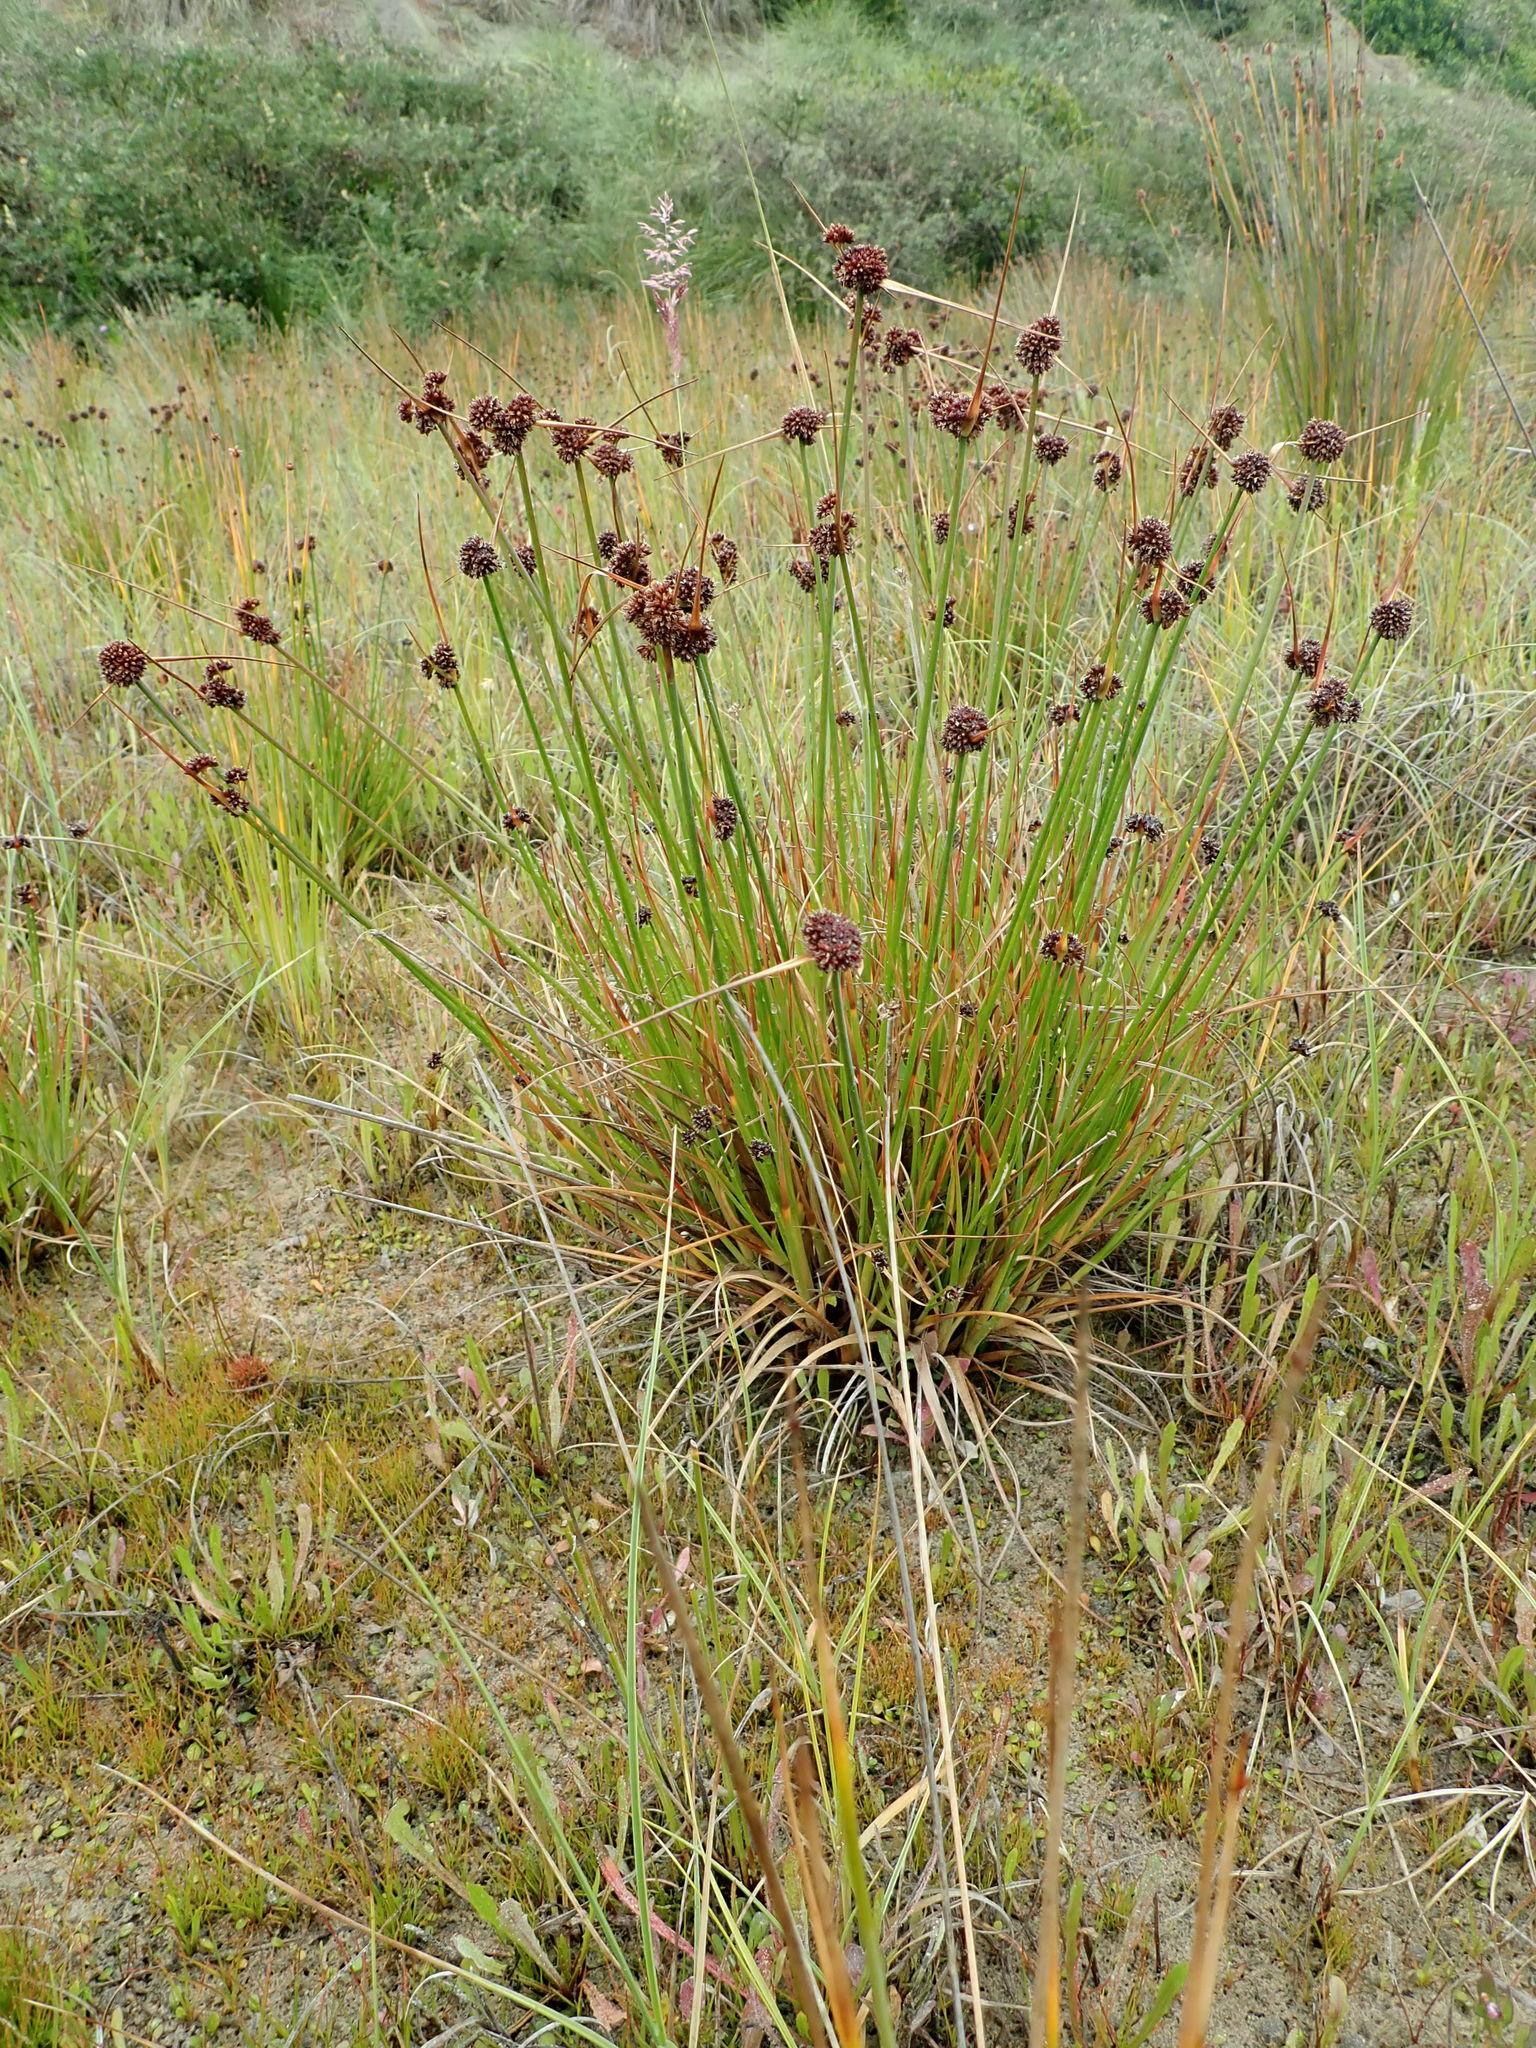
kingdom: Plantae
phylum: Tracheophyta
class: Liliopsida
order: Poales
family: Juncaceae
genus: Juncus
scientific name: Juncus caespiticius
